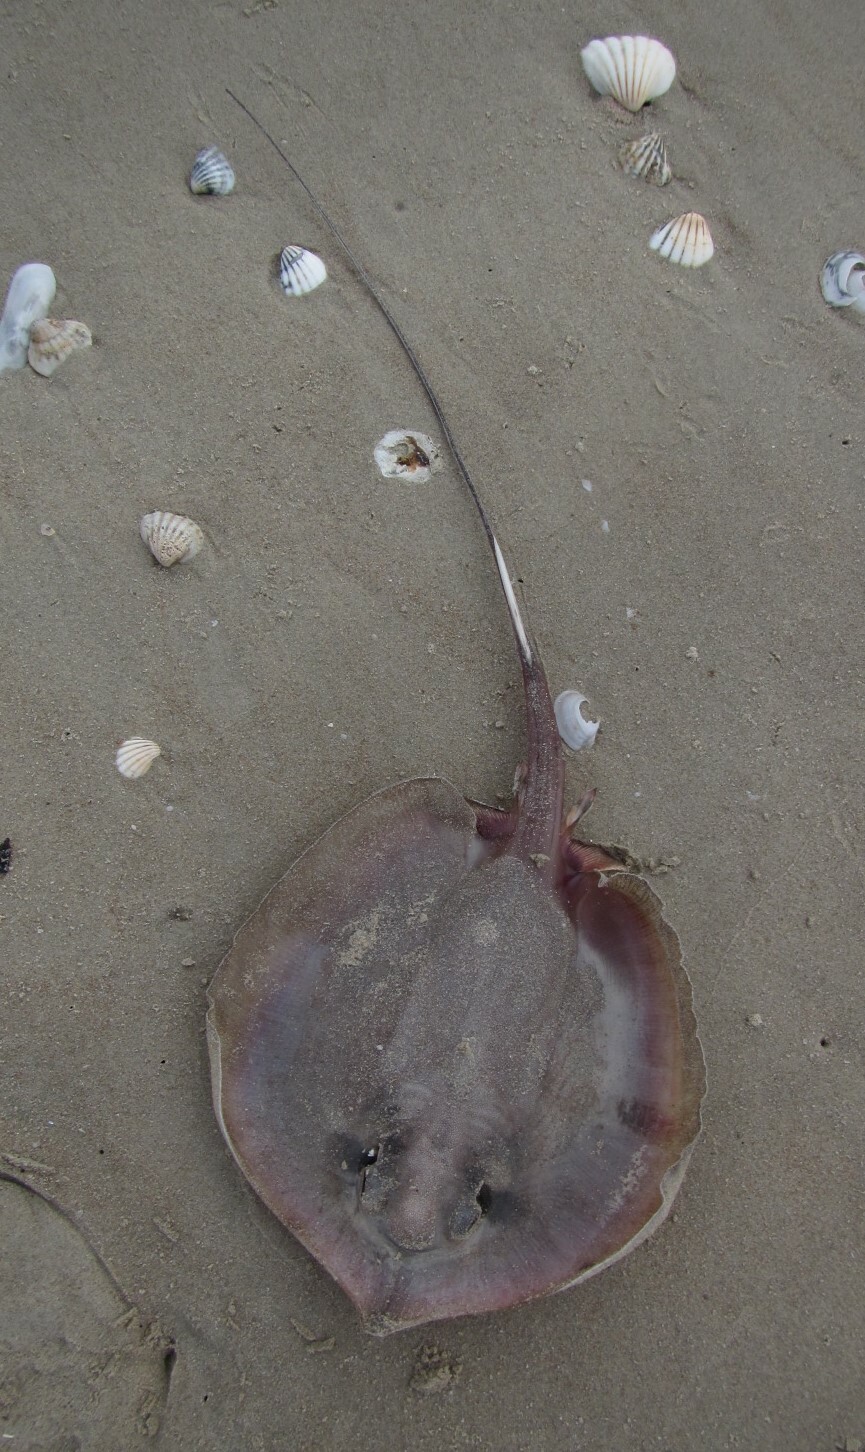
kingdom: Animalia
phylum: Chordata
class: Elasmobranchii
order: Myliobatiformes
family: Dasyatidae
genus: Fontitrygon
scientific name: Fontitrygon margaritella
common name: Pearl stingray
